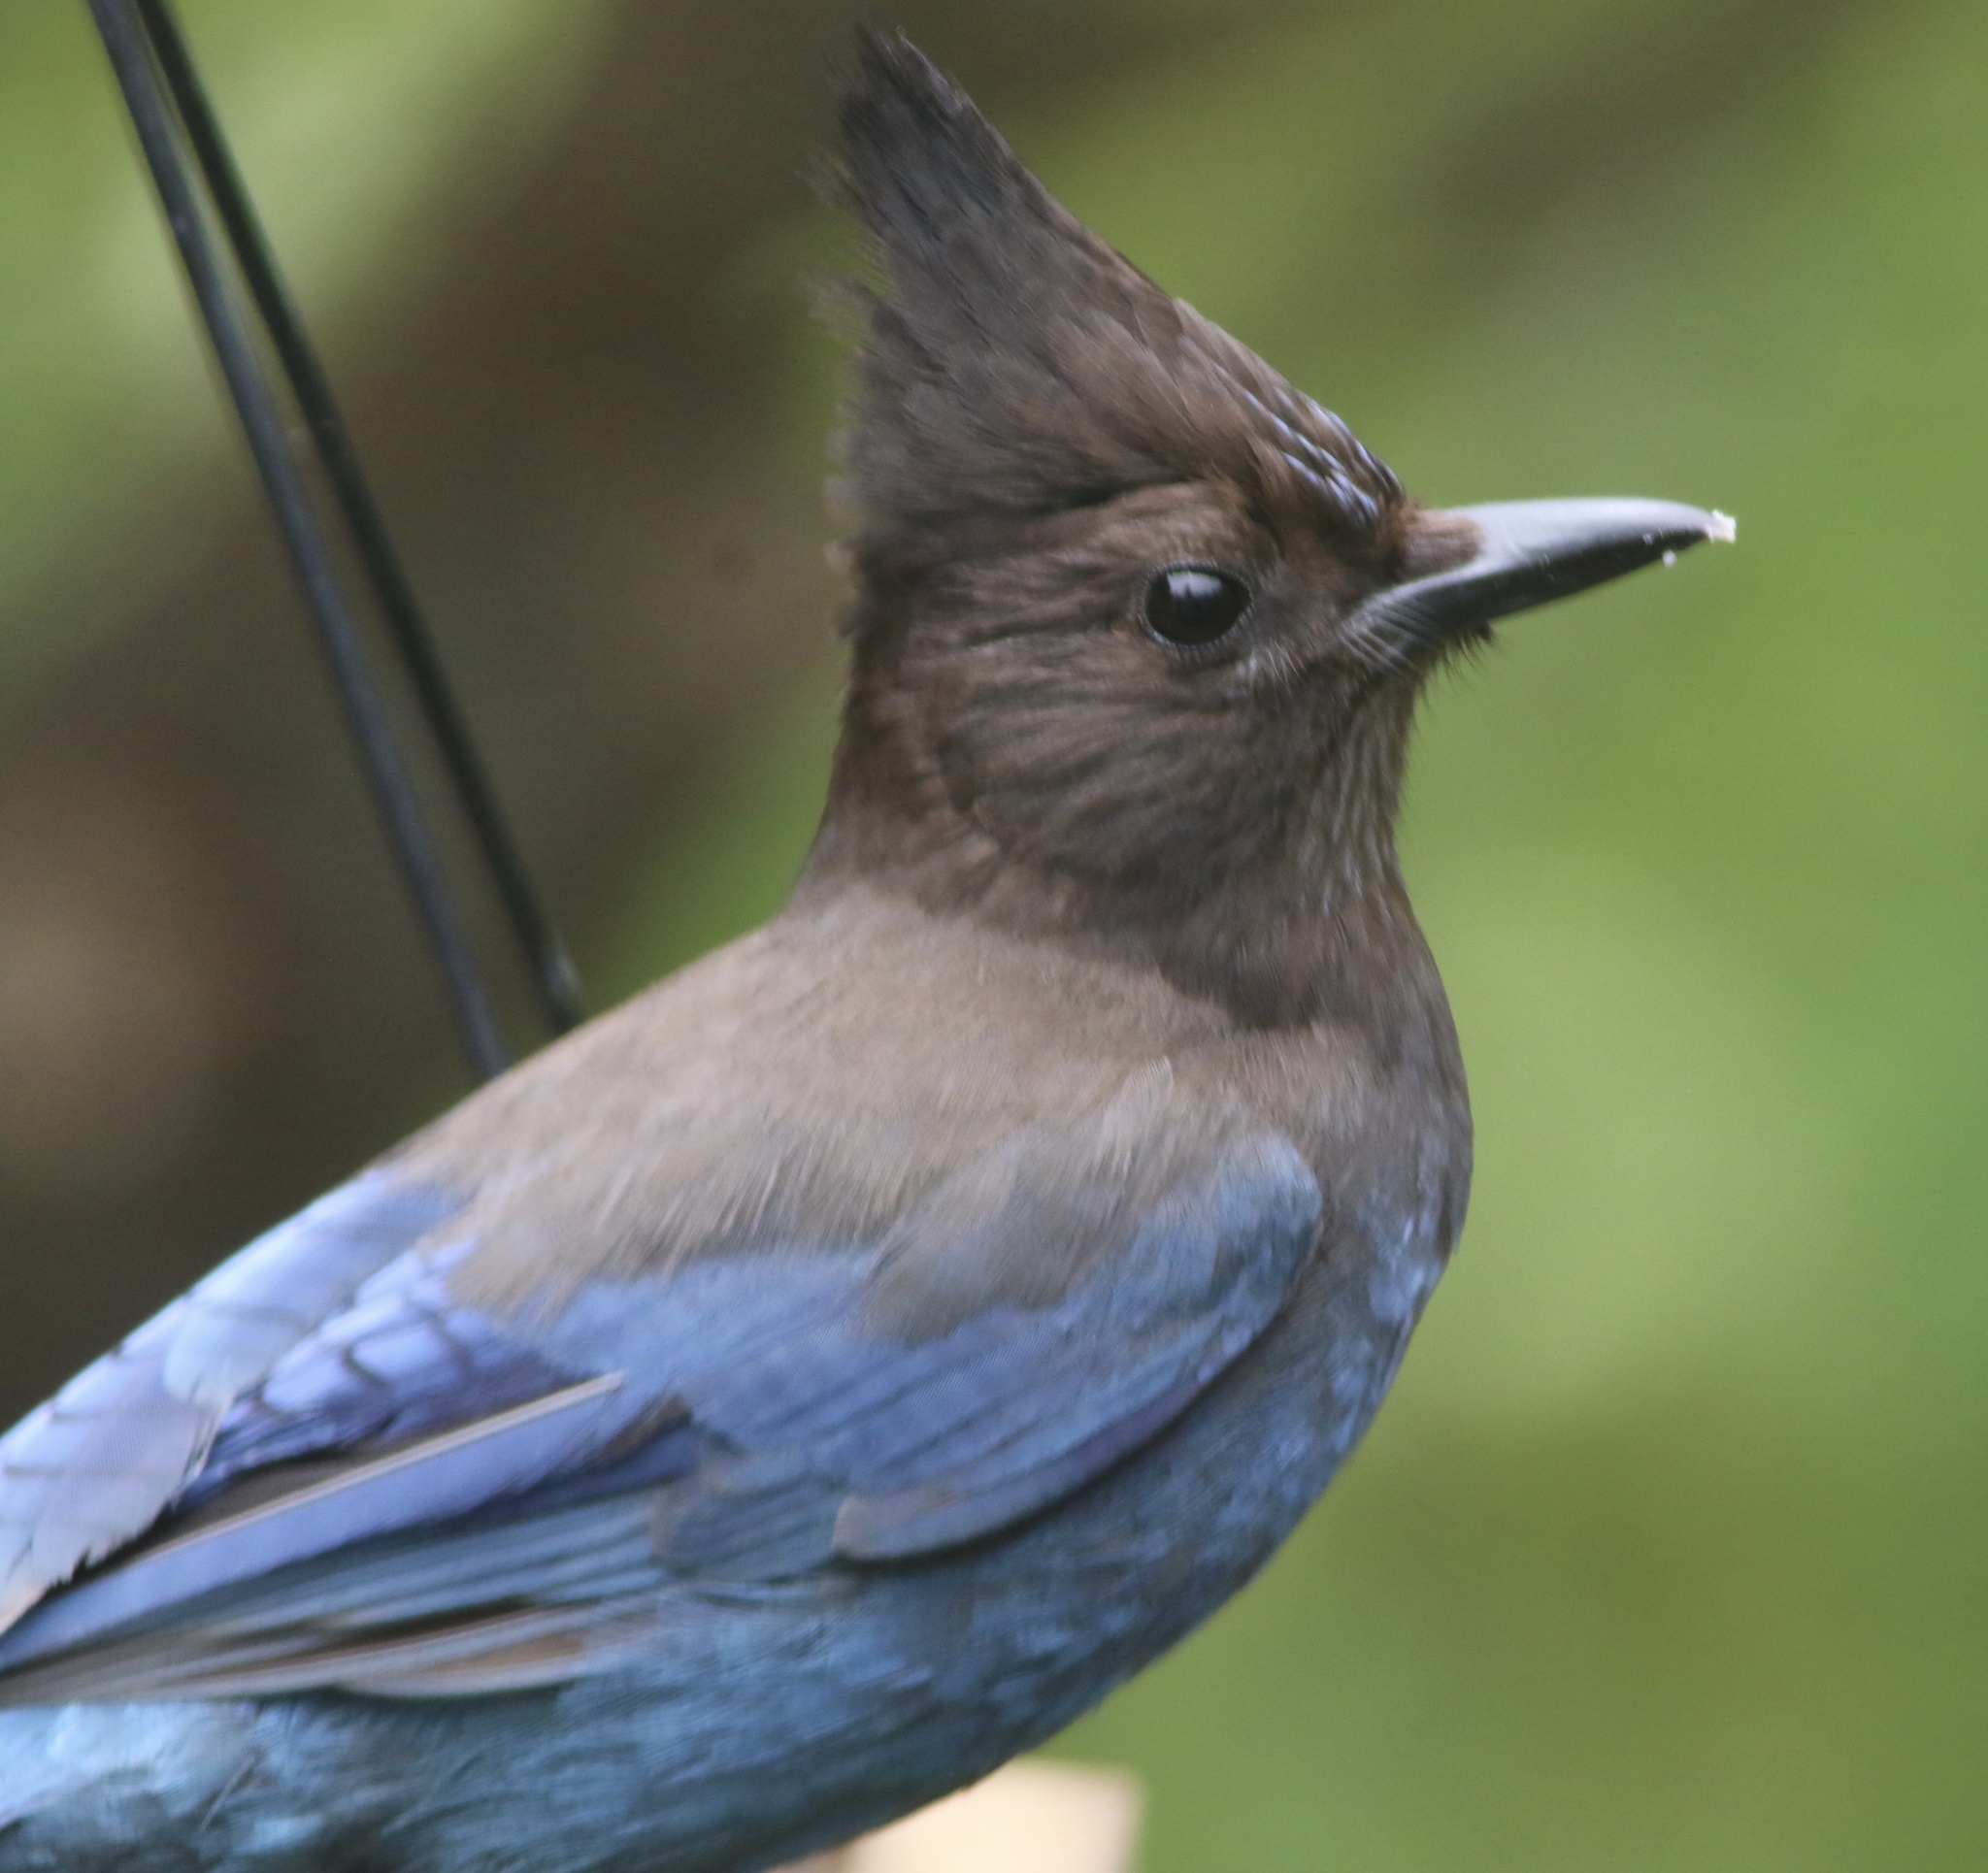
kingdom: Animalia
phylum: Chordata
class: Aves
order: Passeriformes
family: Corvidae
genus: Cyanocitta
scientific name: Cyanocitta stelleri
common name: Steller's jay
